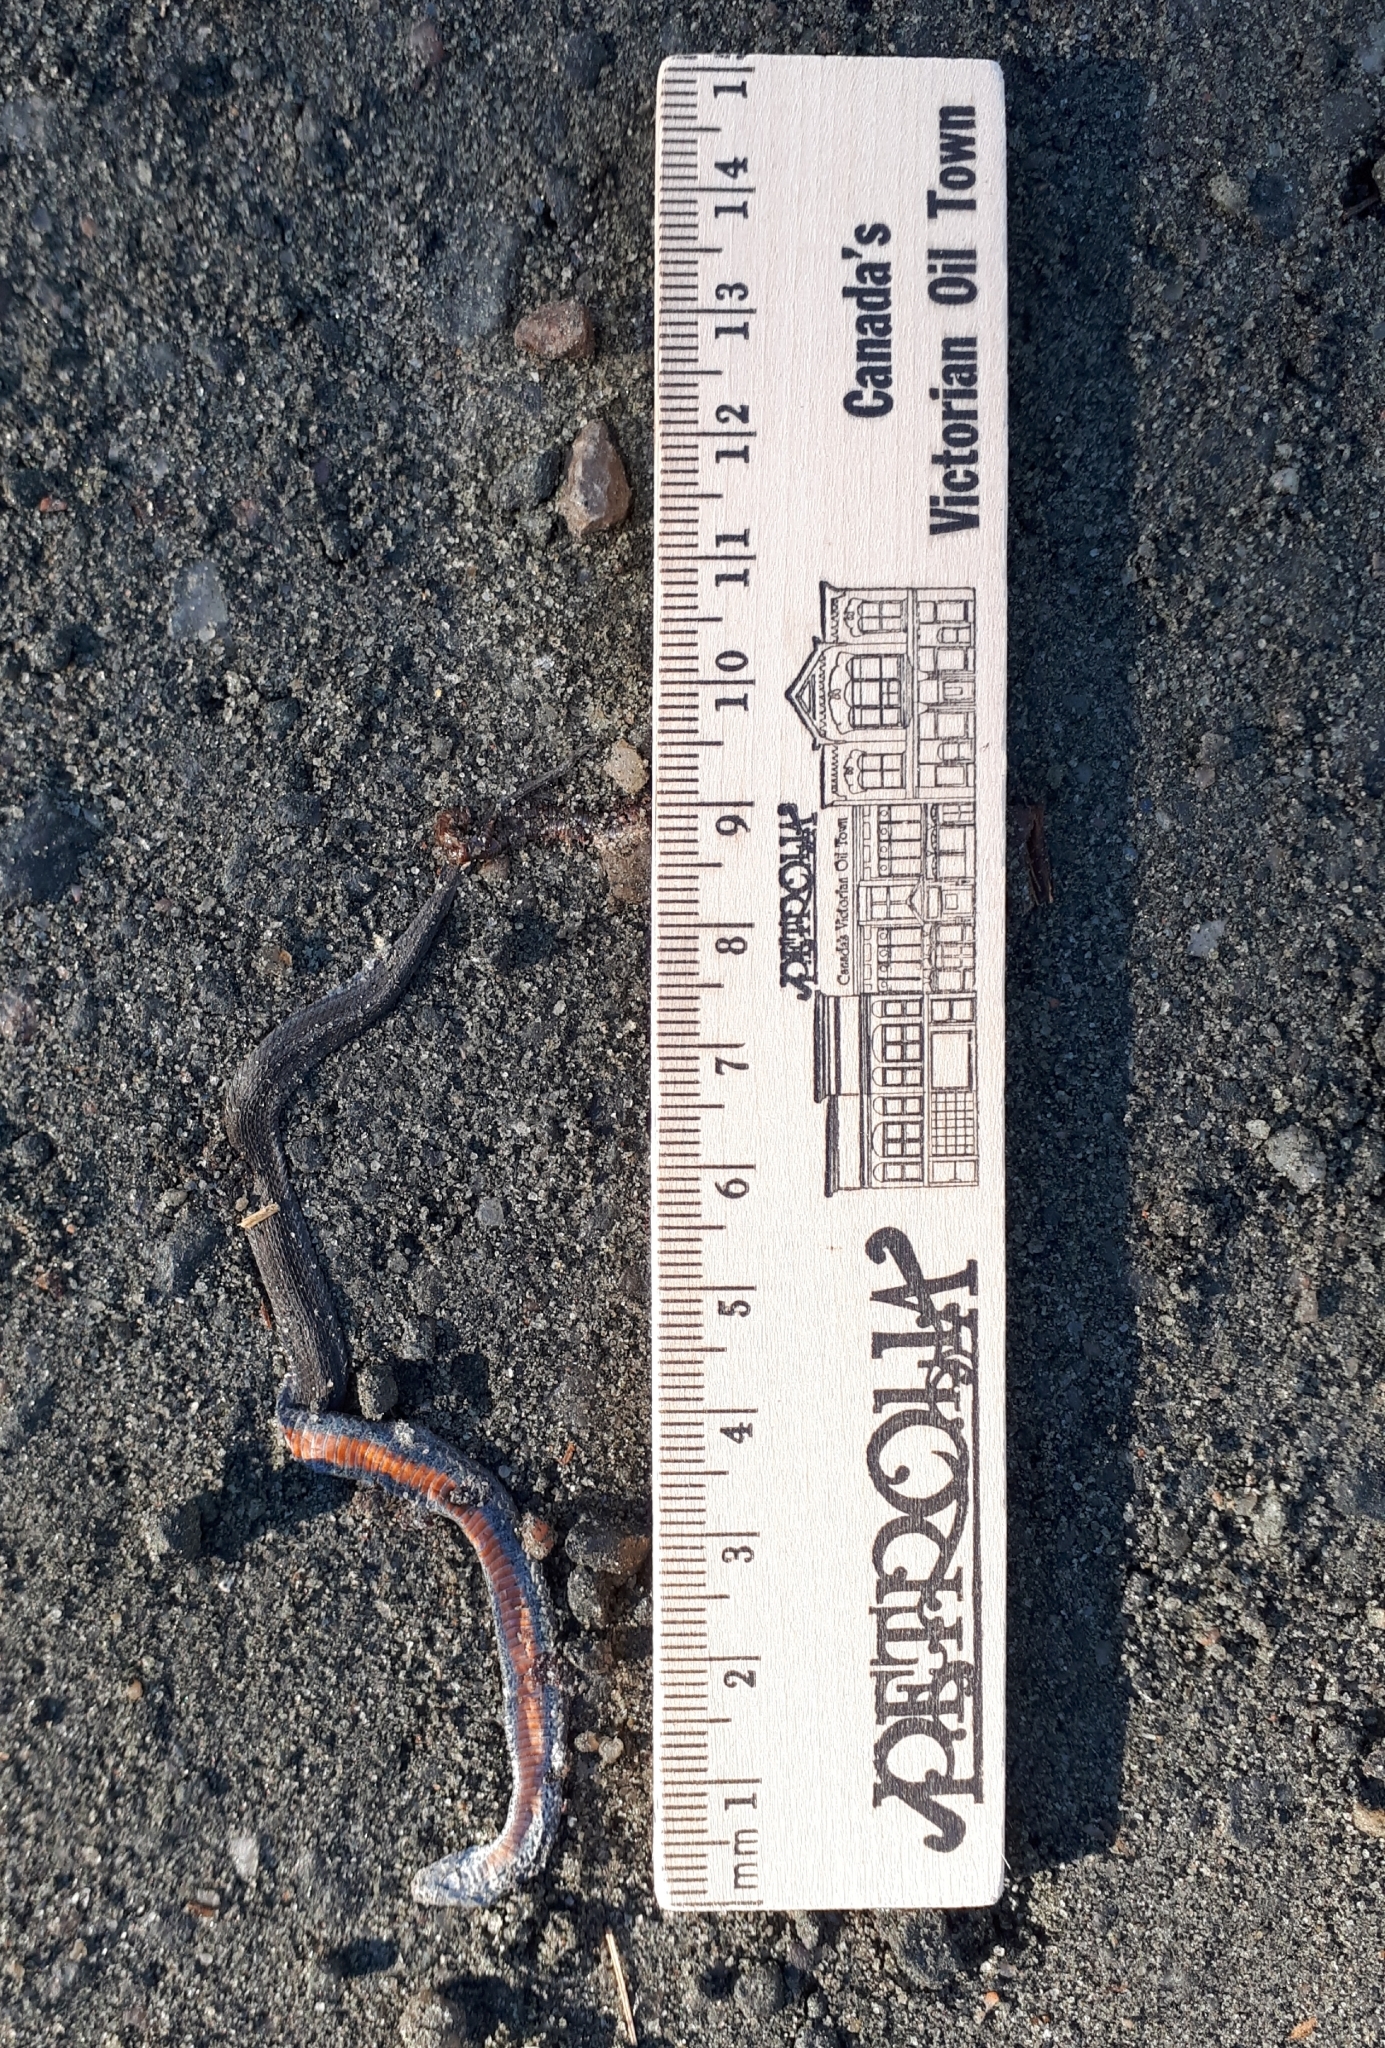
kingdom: Animalia
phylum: Chordata
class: Squamata
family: Colubridae
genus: Storeria
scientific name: Storeria occipitomaculata
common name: Redbelly snake
